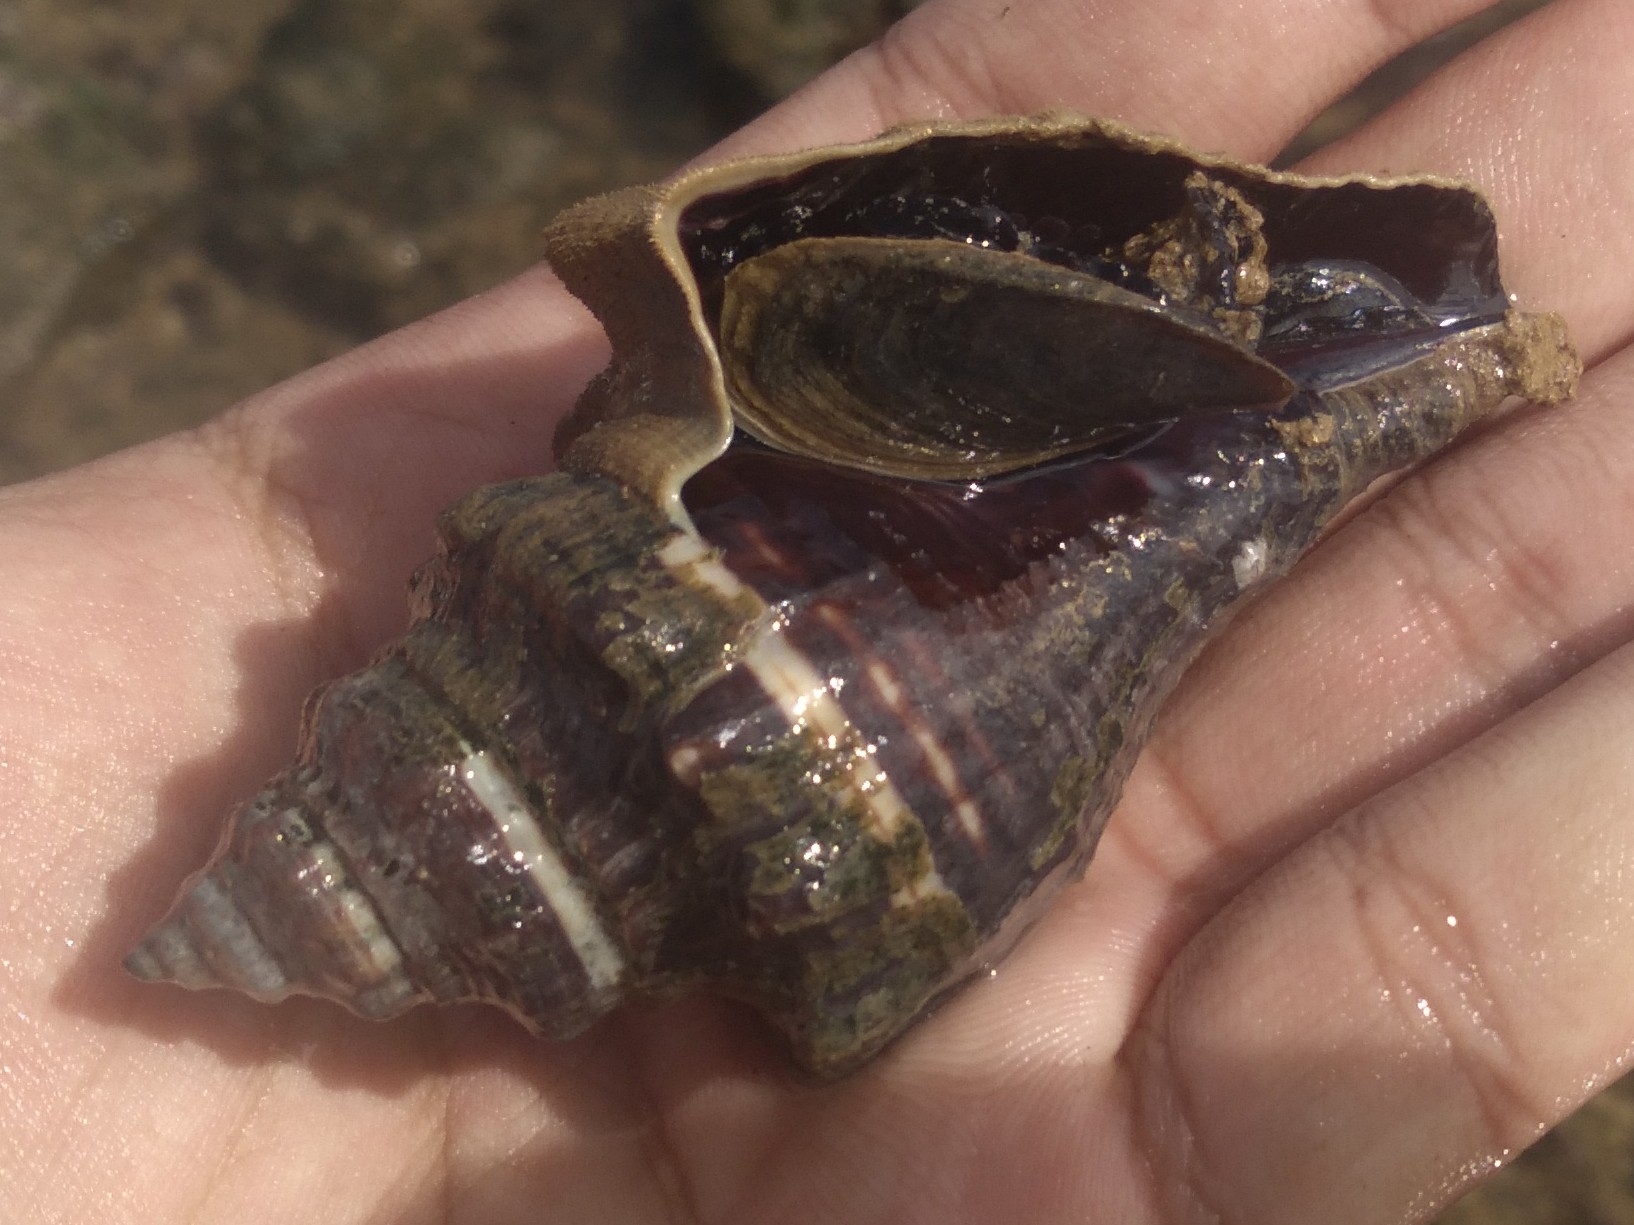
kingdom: Animalia
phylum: Mollusca
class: Gastropoda
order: Neogastropoda
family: Melongenidae
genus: Pugilina
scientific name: Pugilina tupiniquim
